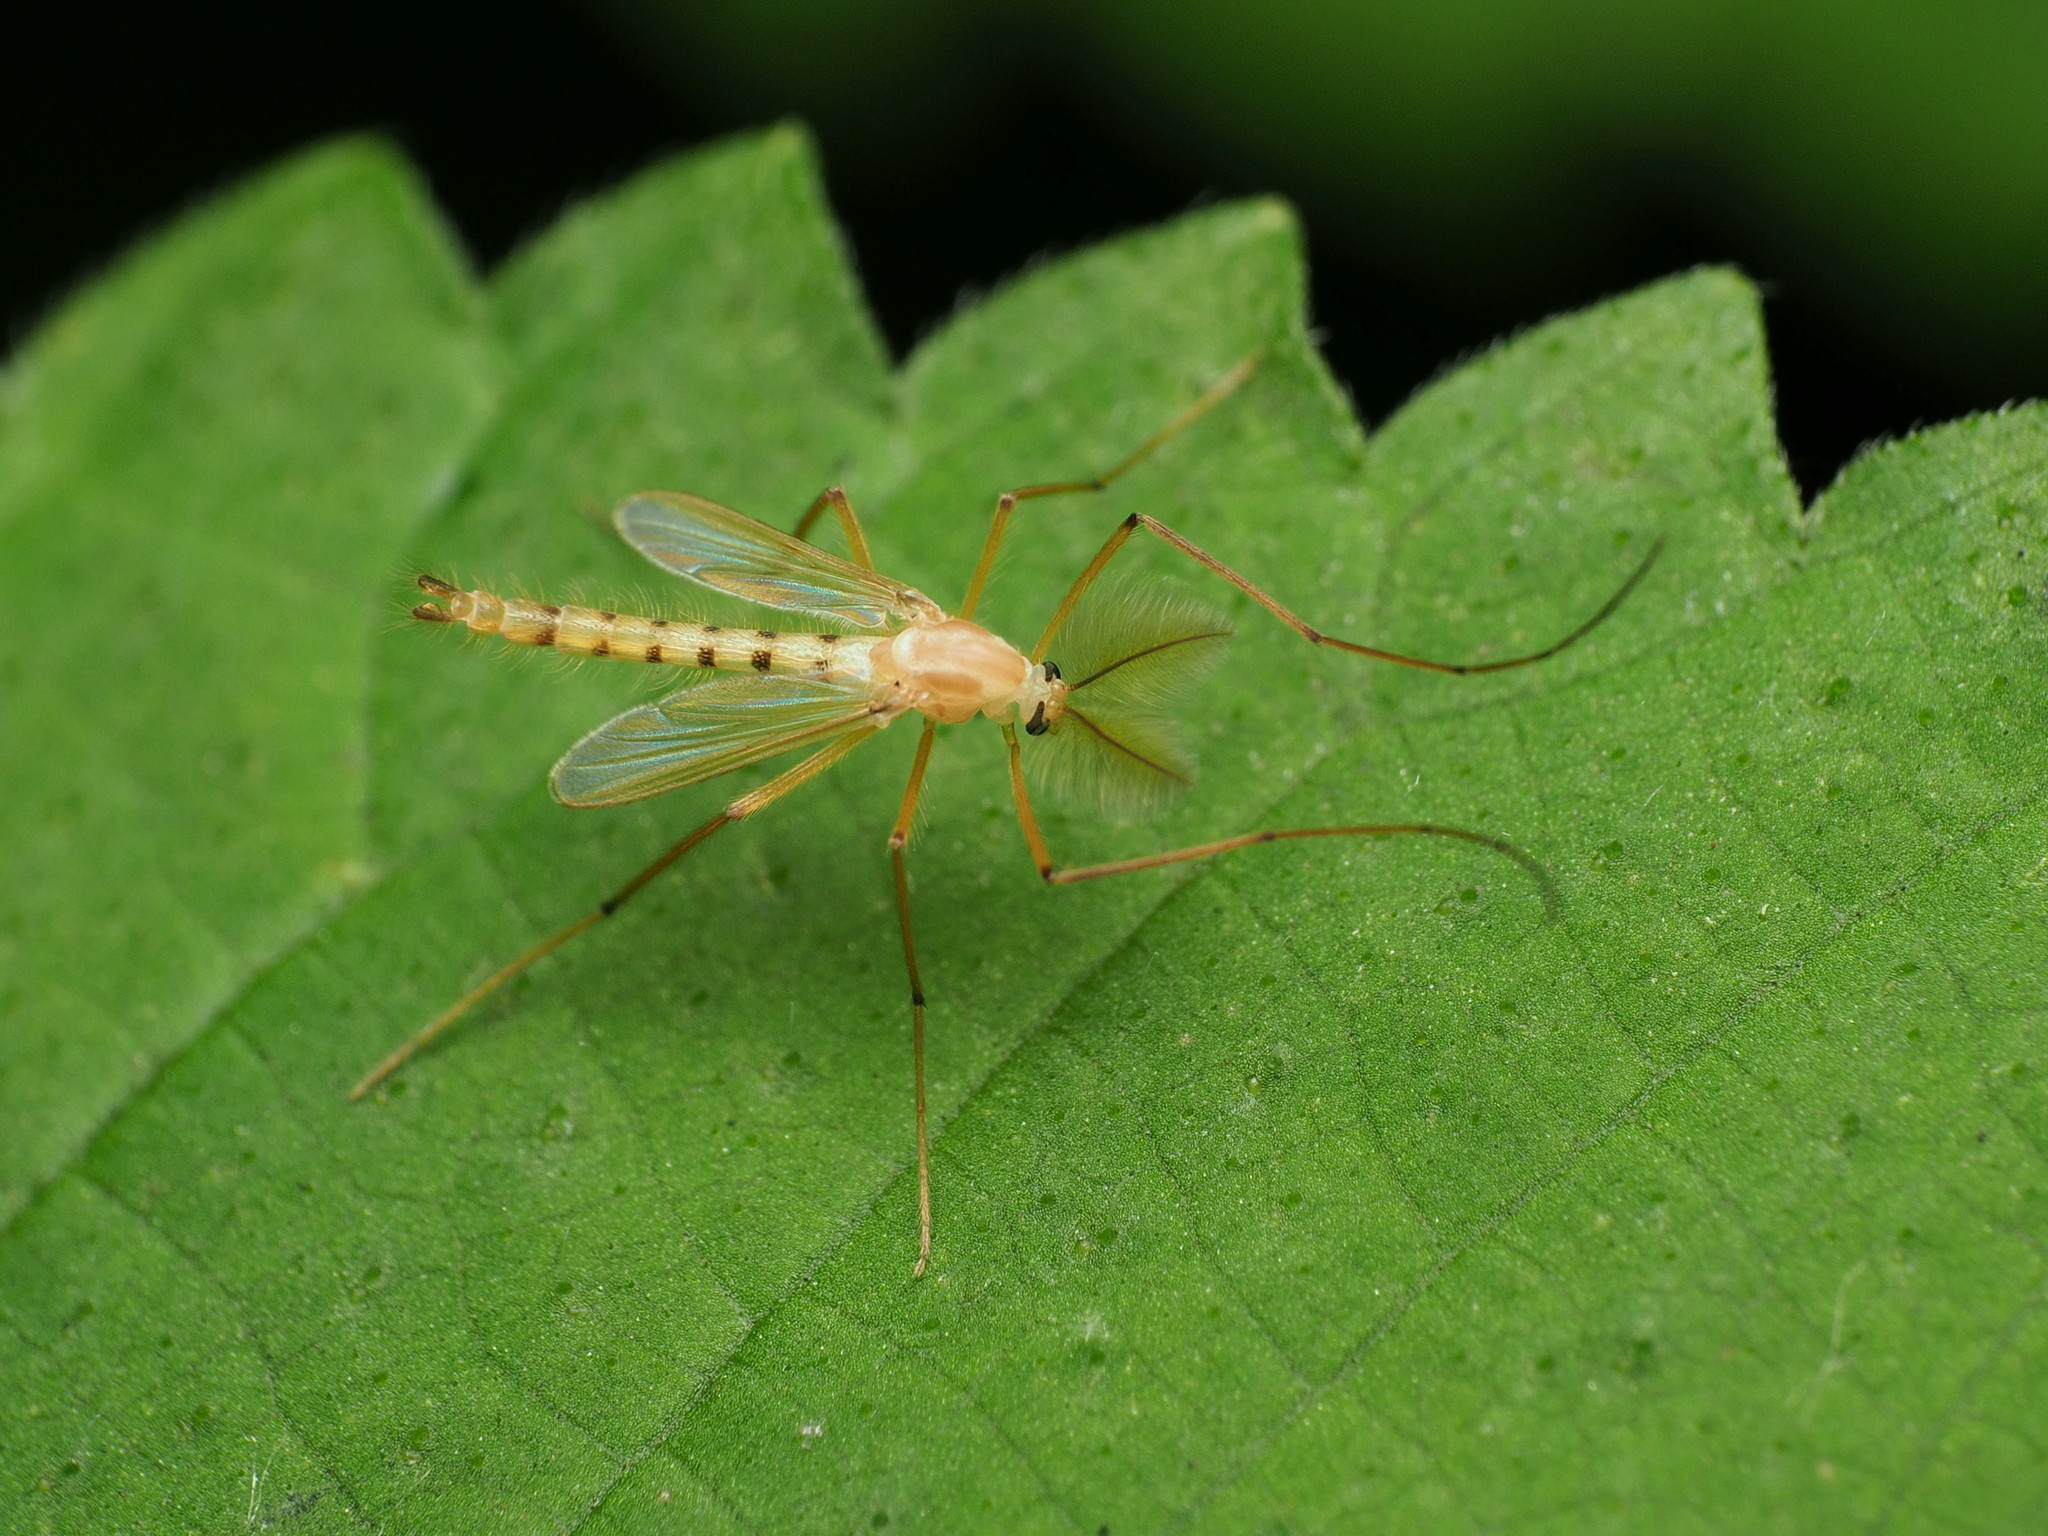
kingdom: Animalia
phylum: Arthropoda
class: Insecta
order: Diptera
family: Chironomidae
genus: Xylotopus
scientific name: Xylotopus par
